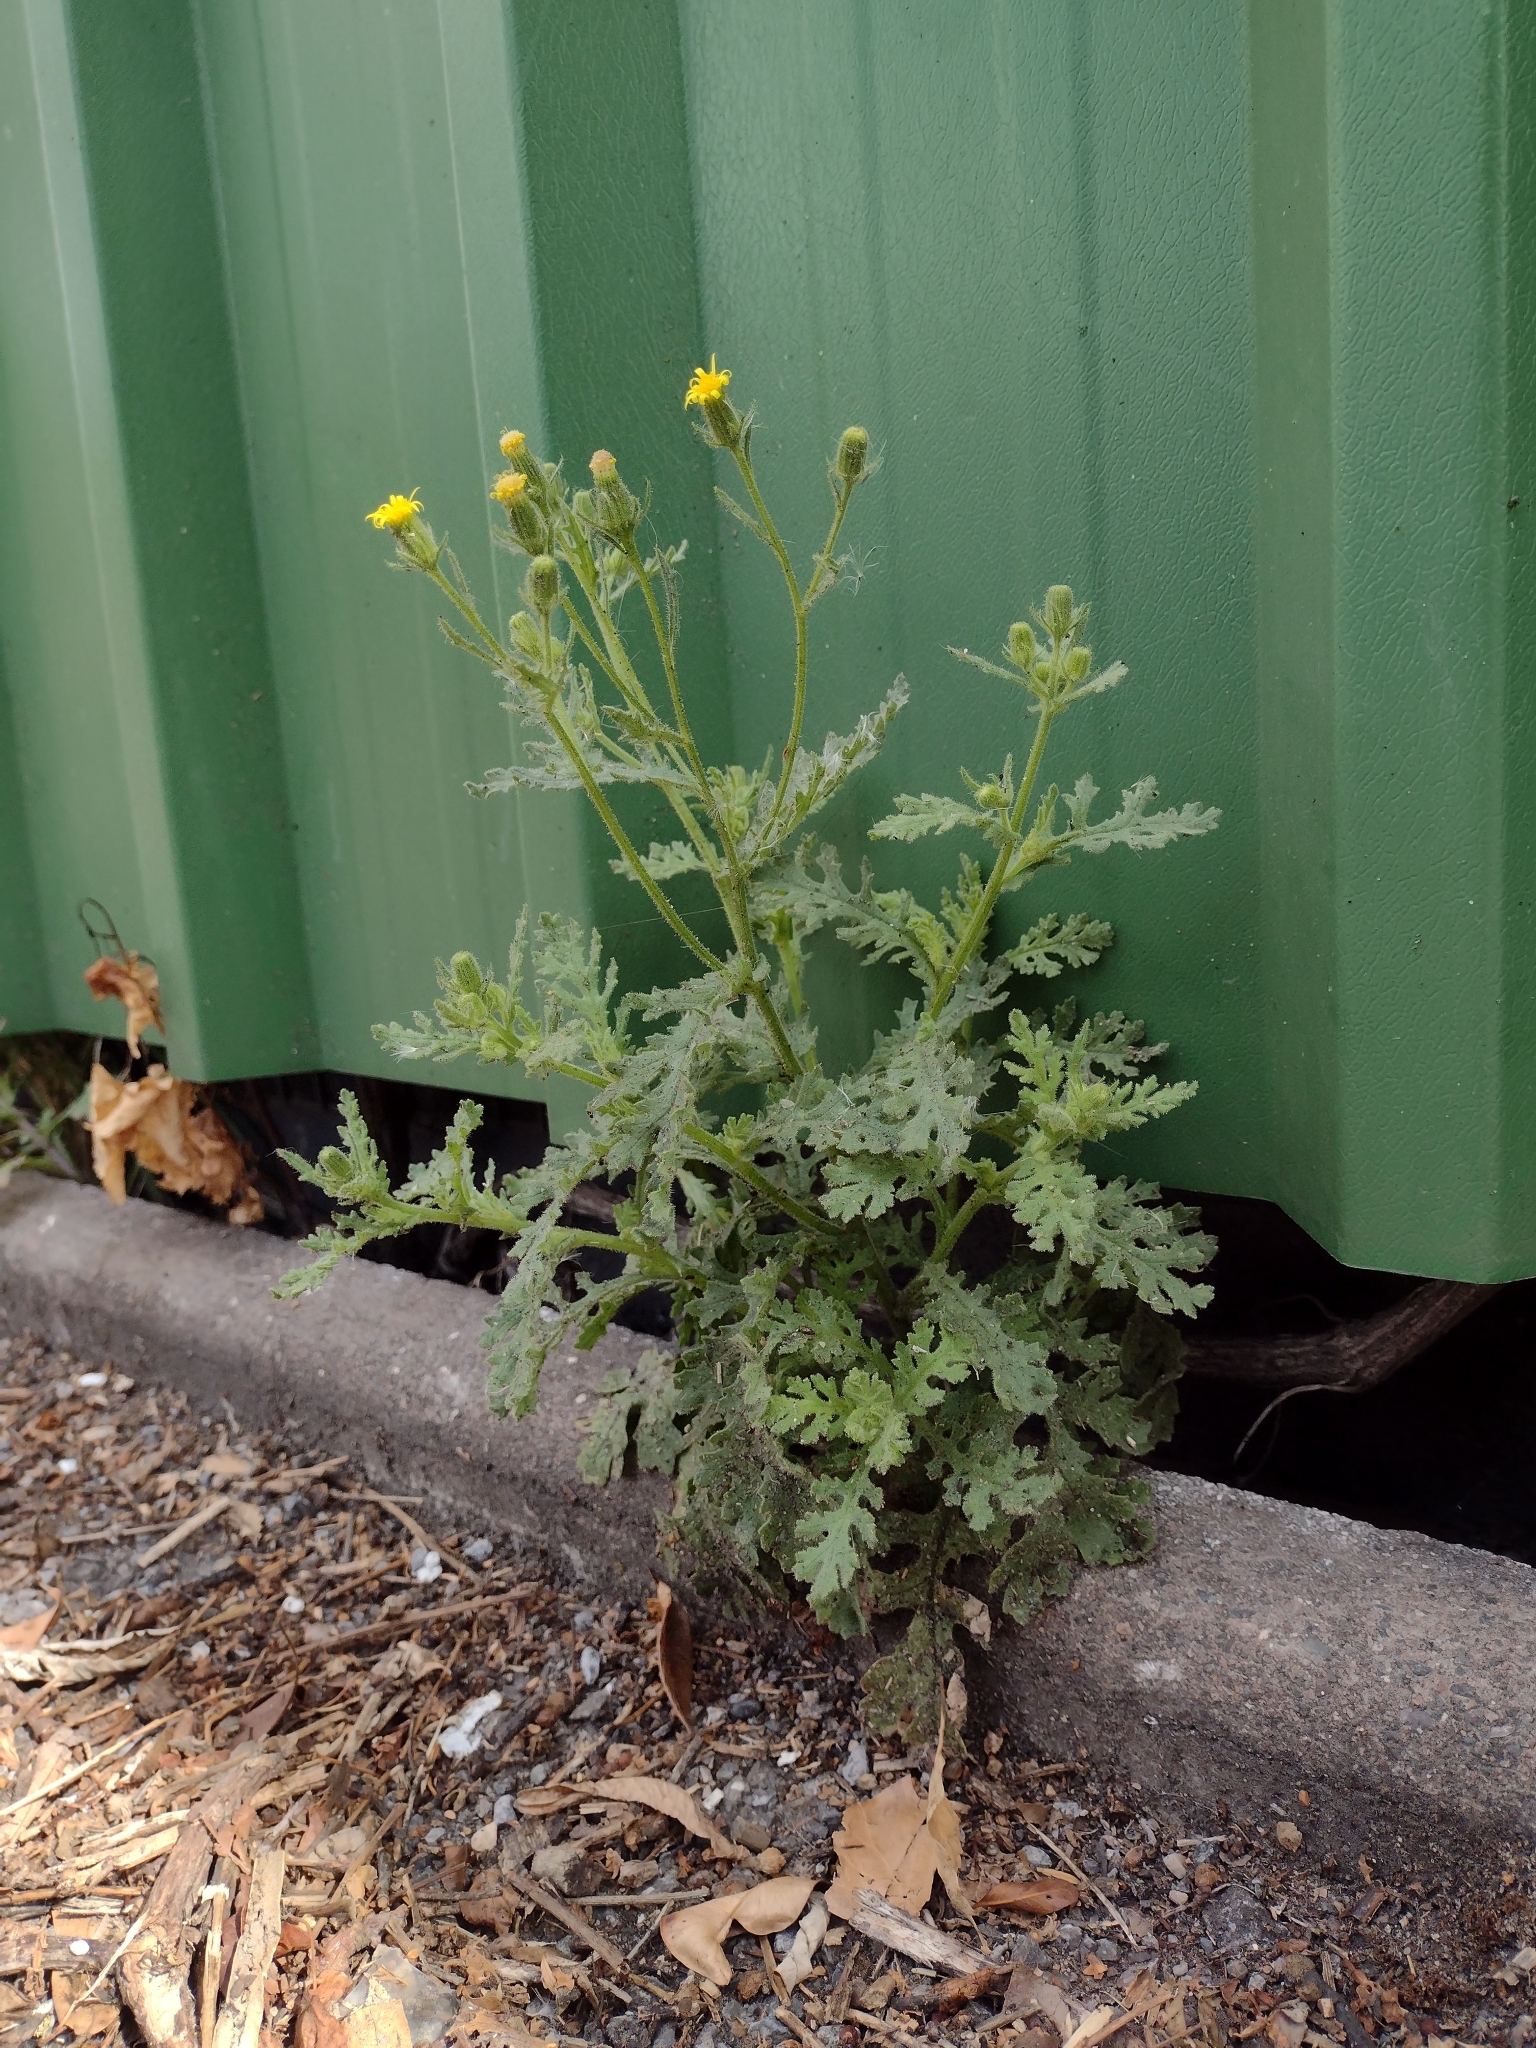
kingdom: Plantae
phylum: Tracheophyta
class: Magnoliopsida
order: Asterales
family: Asteraceae
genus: Senecio
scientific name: Senecio viscosus
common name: Sticky groundsel
